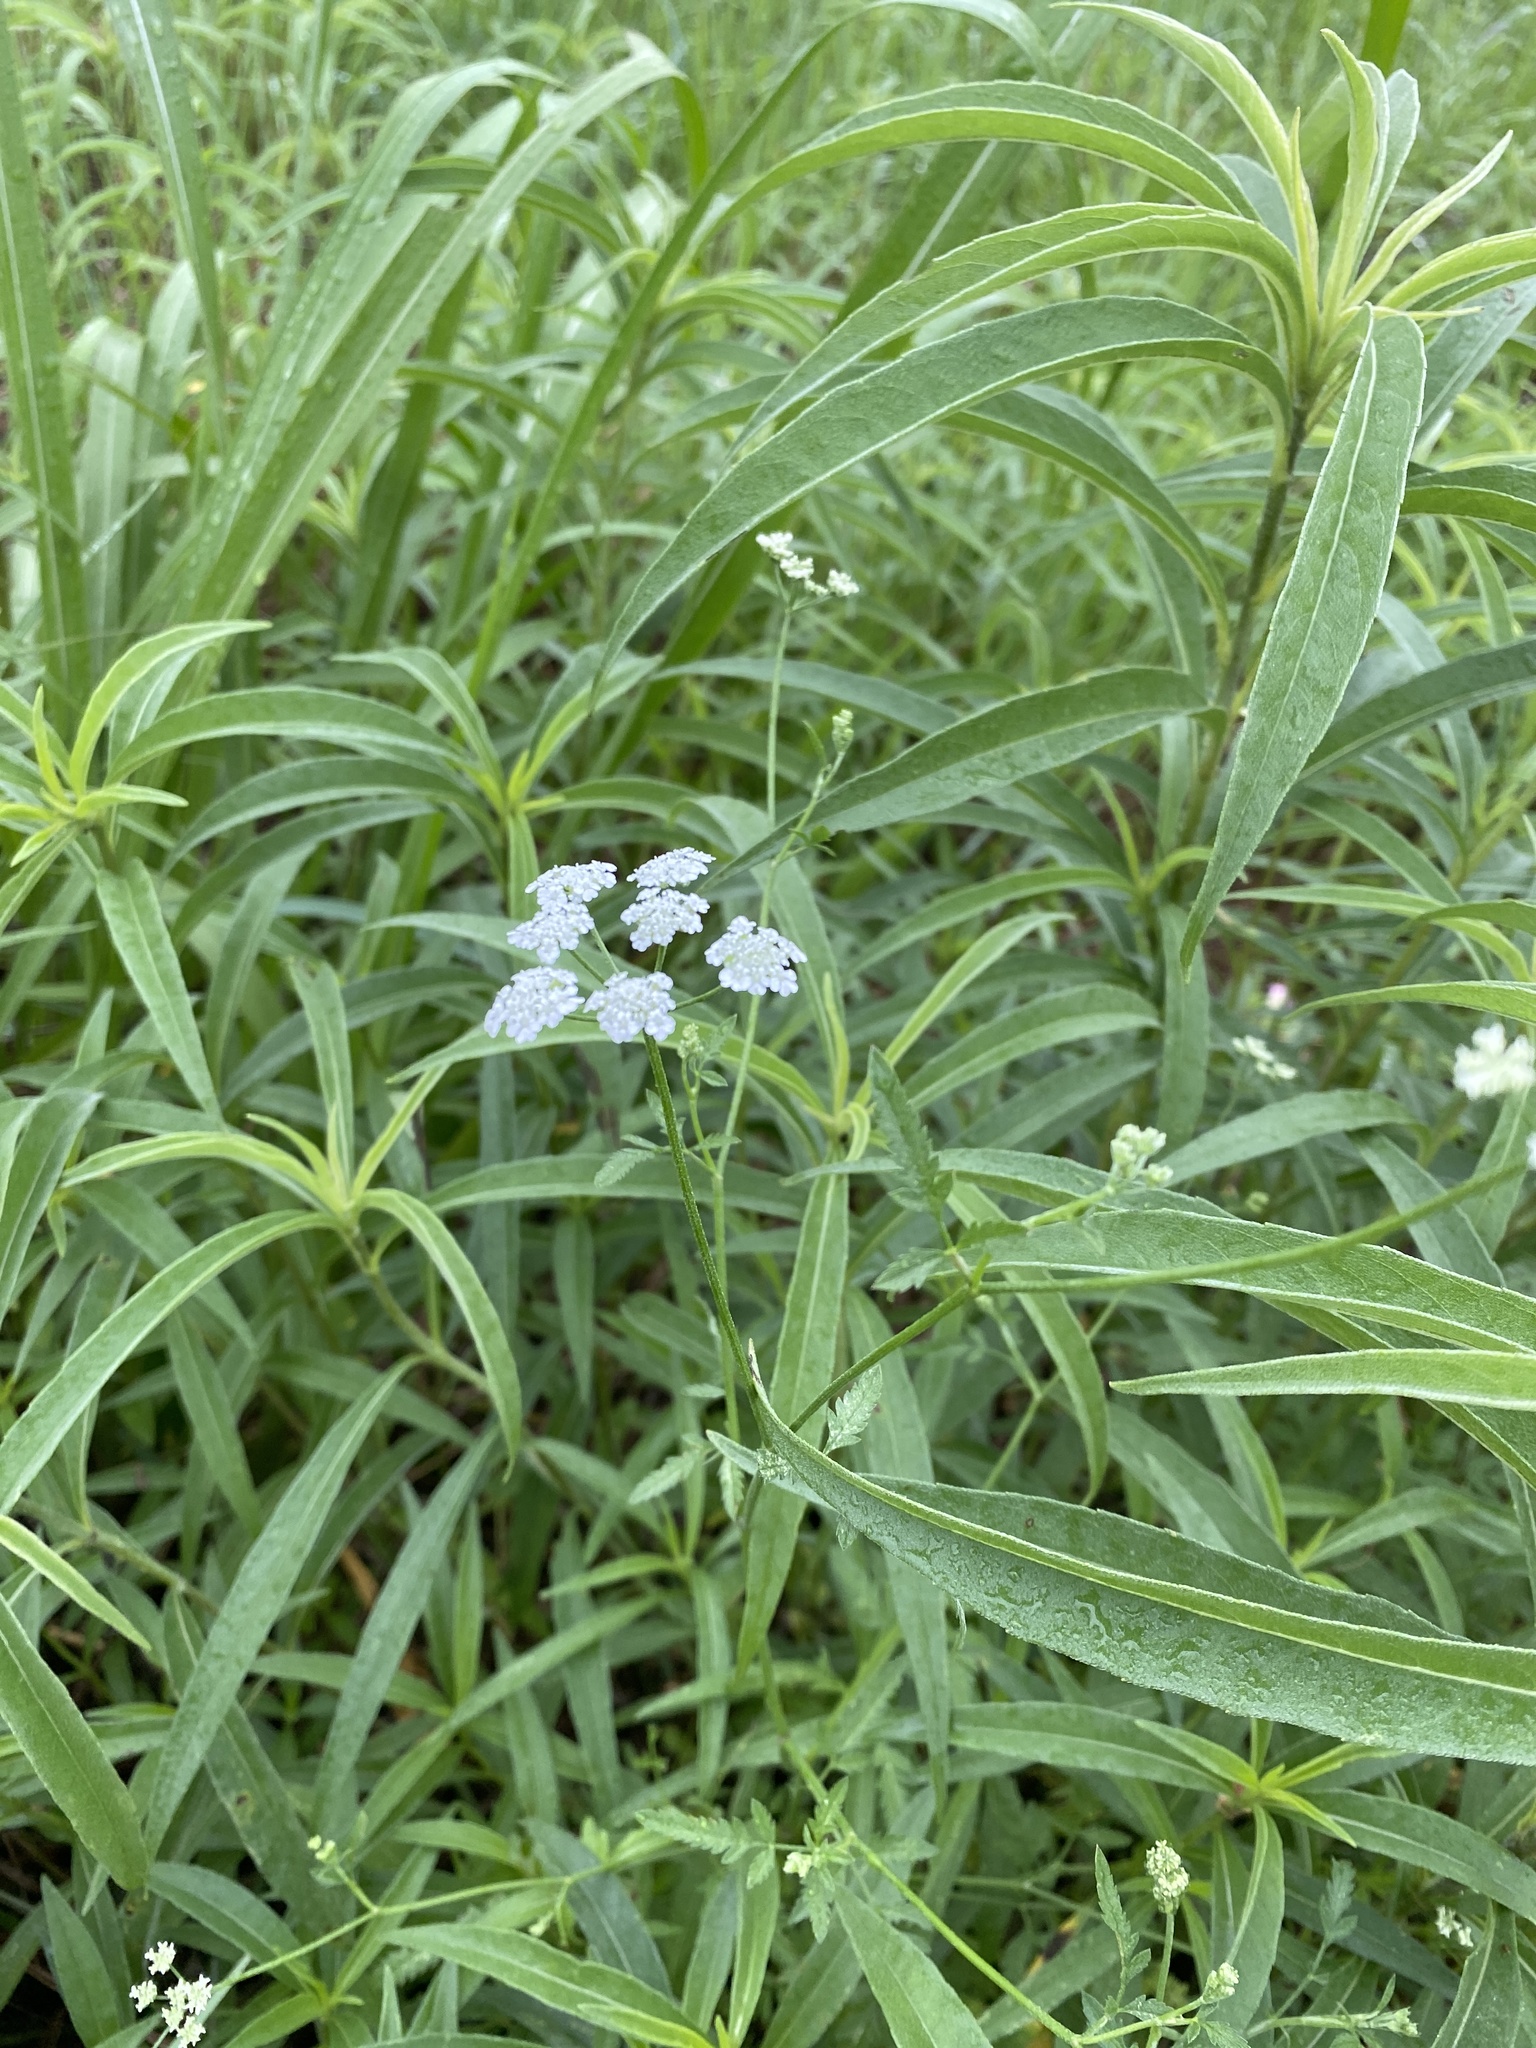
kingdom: Plantae
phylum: Tracheophyta
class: Magnoliopsida
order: Apiales
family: Apiaceae
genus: Torilis
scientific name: Torilis arvensis
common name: Spreading hedge-parsley
